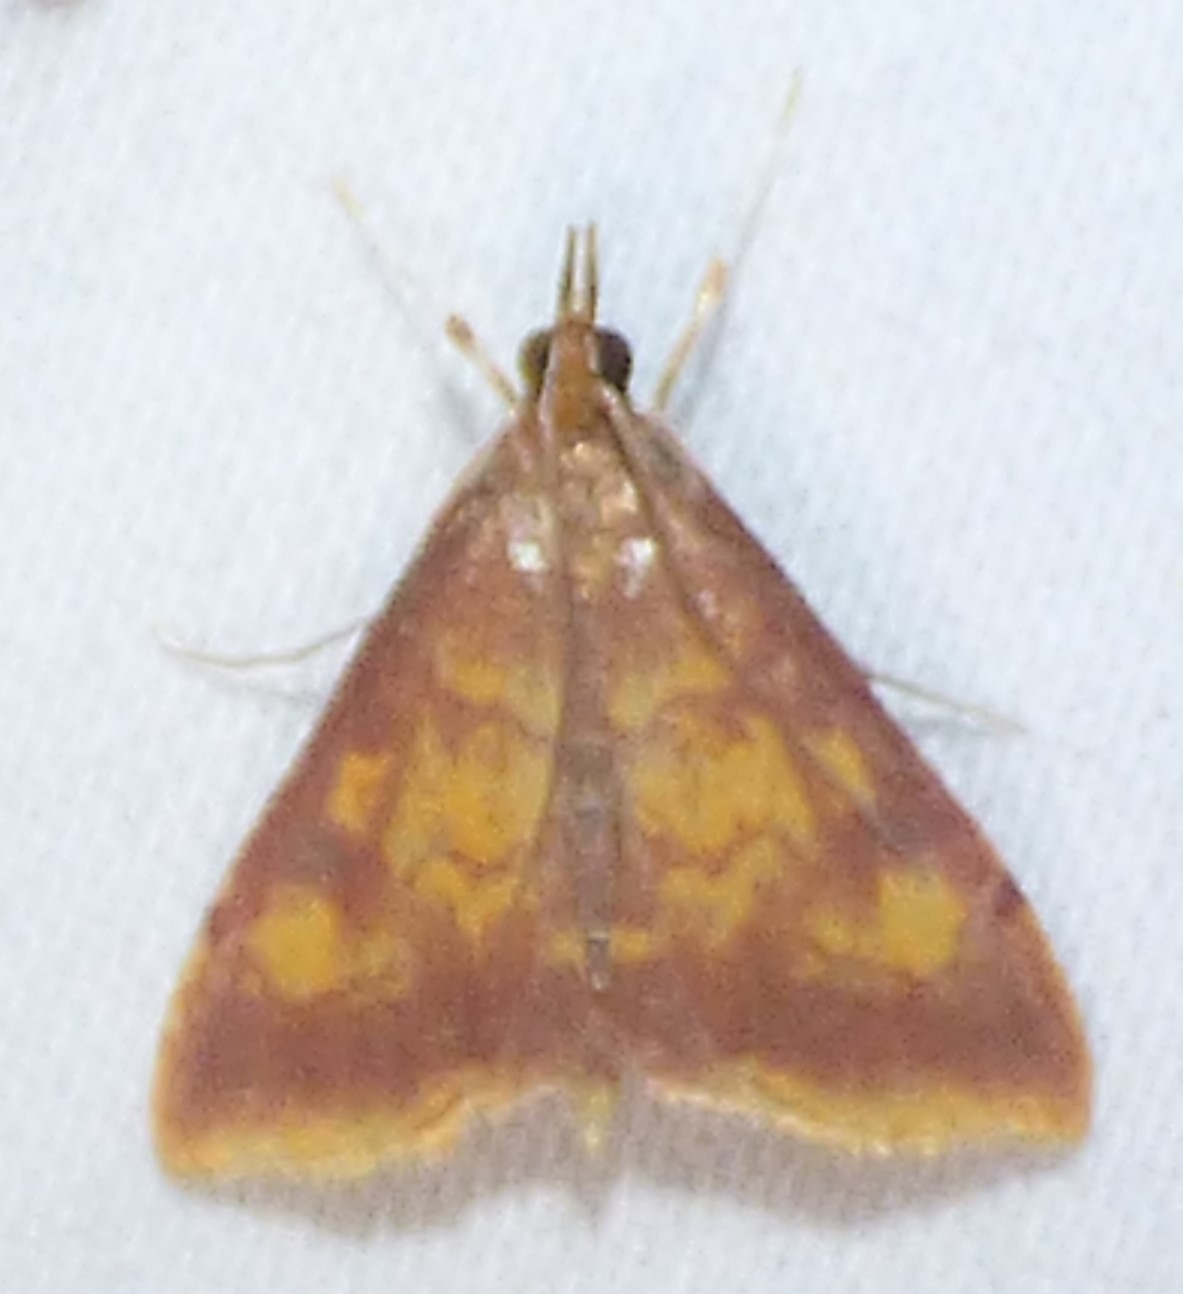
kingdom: Animalia
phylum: Arthropoda
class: Insecta
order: Lepidoptera
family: Crambidae
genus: Pyrausta
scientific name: Pyrausta acrionalis
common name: Mint-loving pyrausta moth
